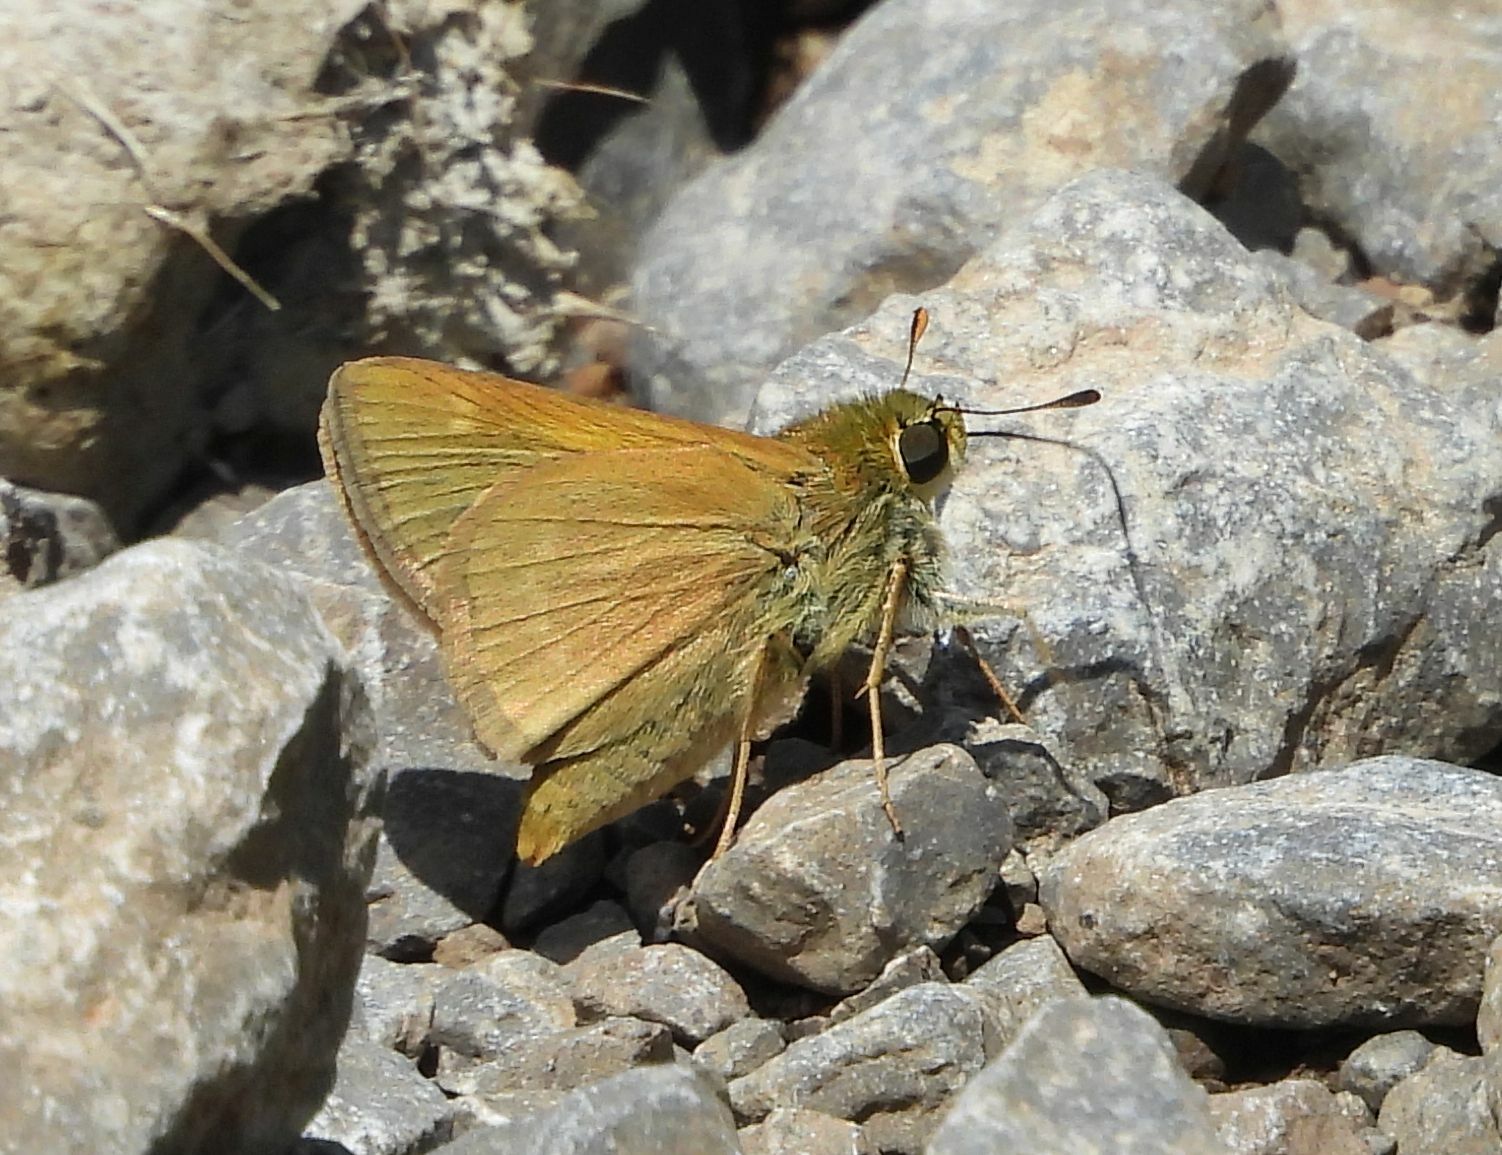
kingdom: Animalia
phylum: Arthropoda
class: Insecta
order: Lepidoptera
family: Hesperiidae
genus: Polites
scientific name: Polites origenes
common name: Crossline skipper
